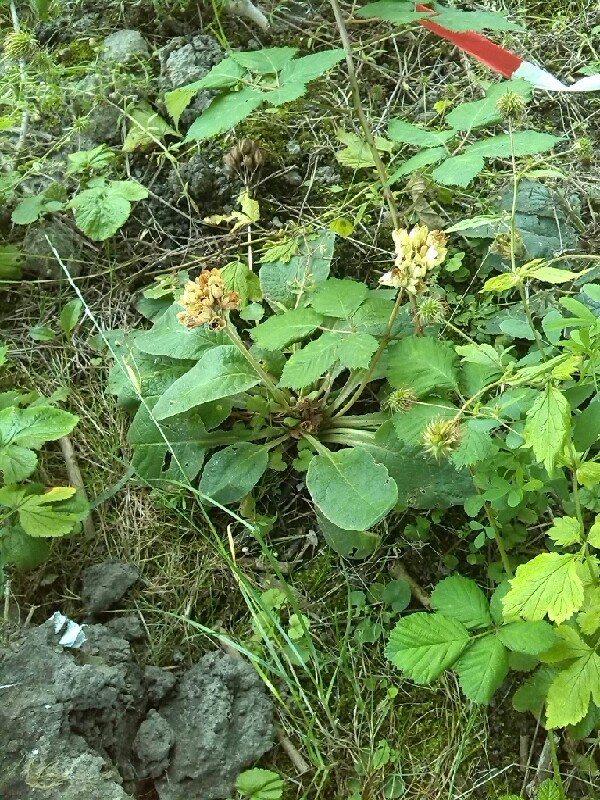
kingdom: Plantae
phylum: Tracheophyta
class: Magnoliopsida
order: Ericales
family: Primulaceae
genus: Primula
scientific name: Primula veris
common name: Cowslip
